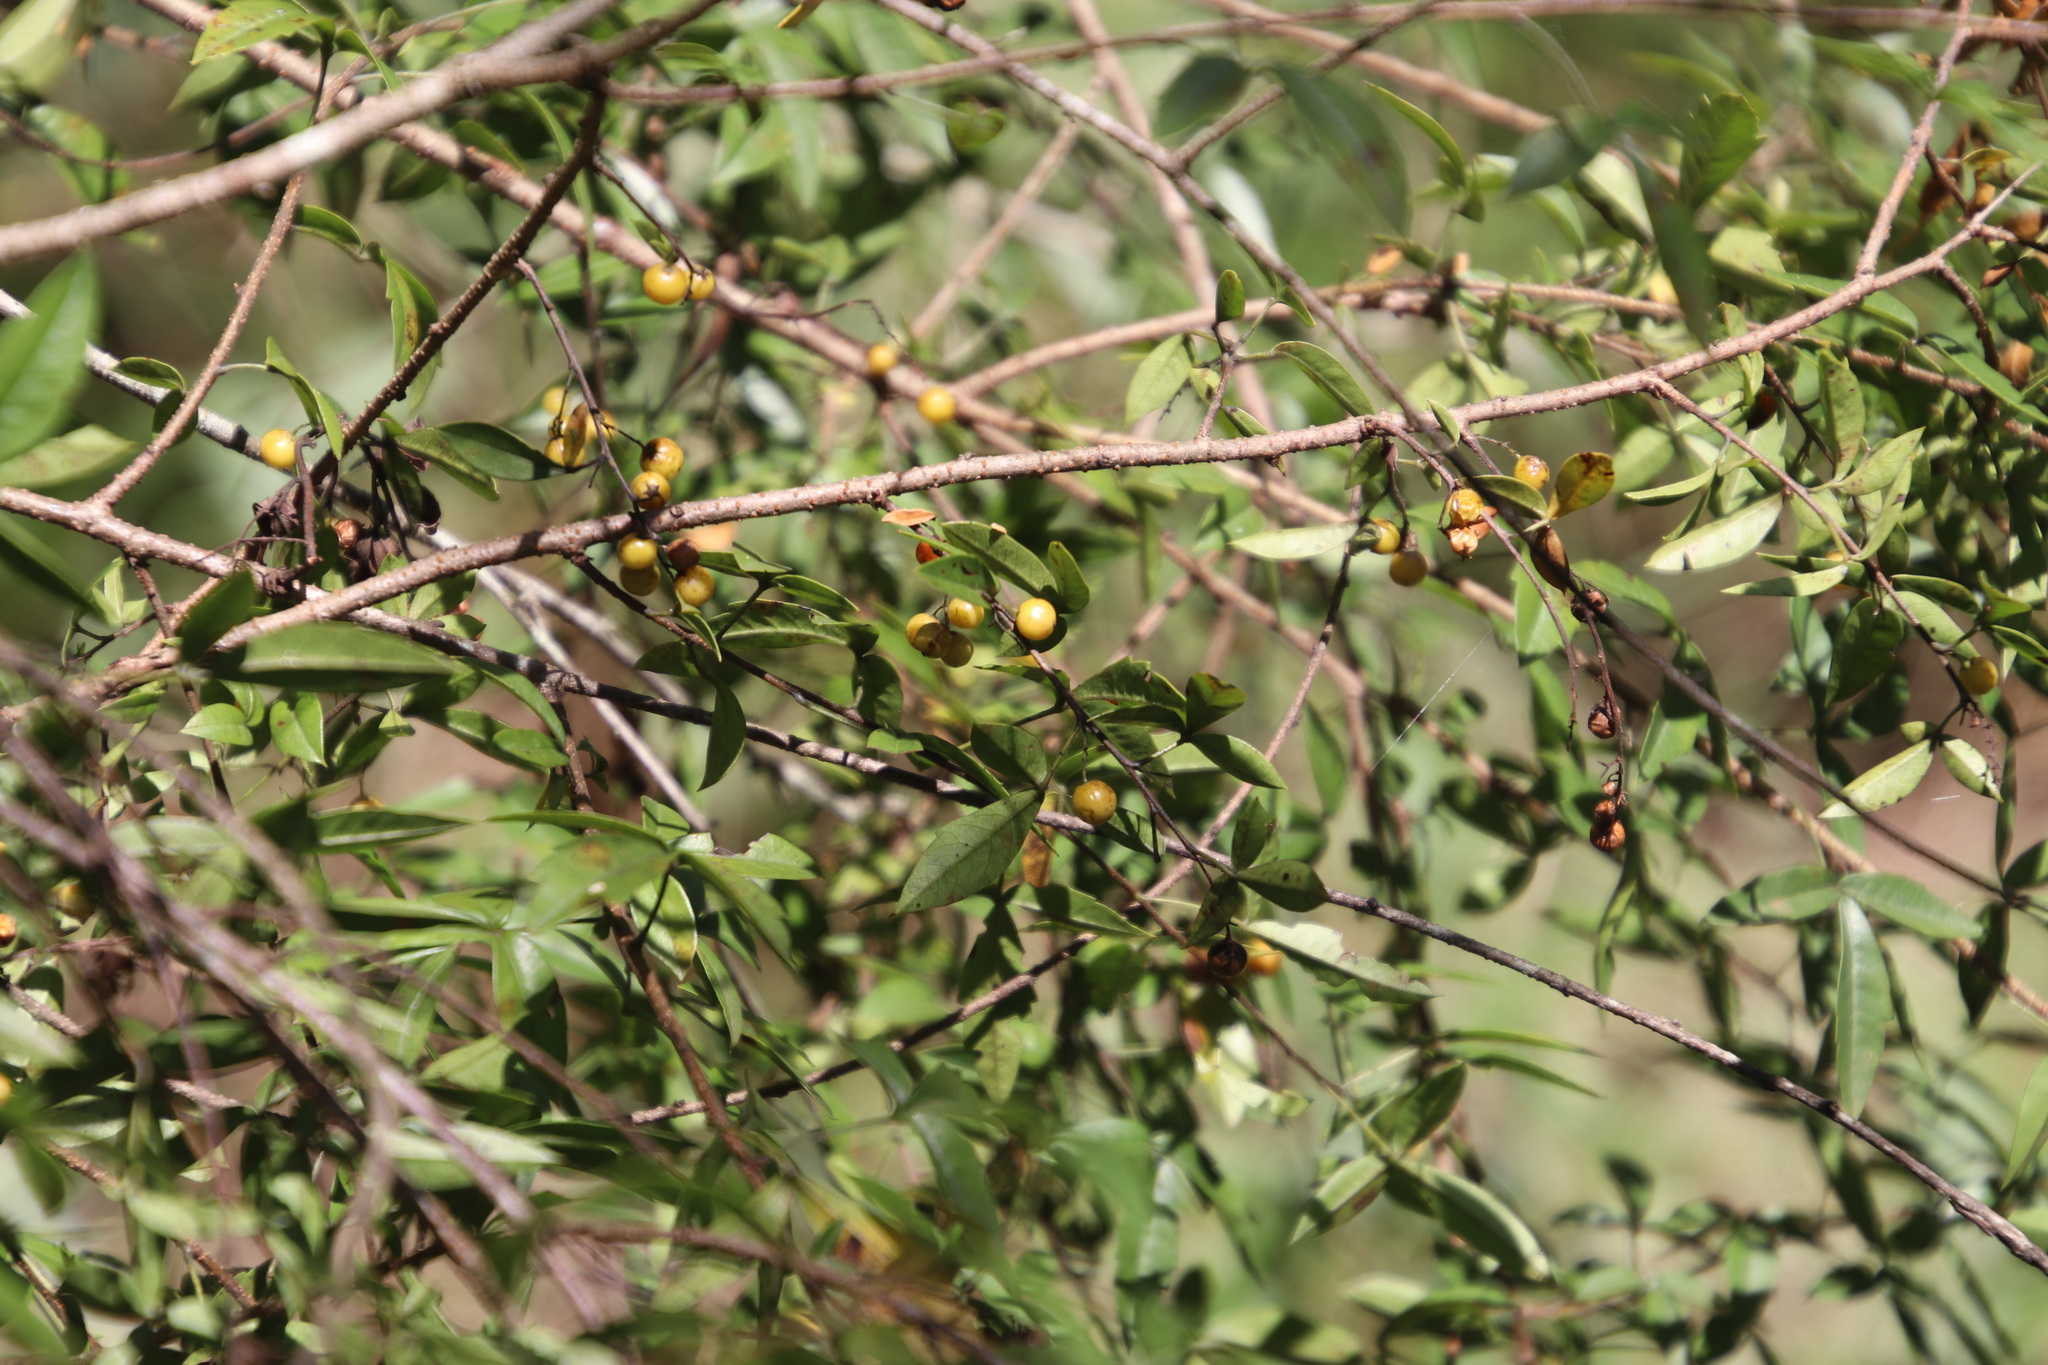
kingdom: Plantae
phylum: Tracheophyta
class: Magnoliopsida
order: Sapindales
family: Anacardiaceae
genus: Searsia
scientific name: Searsia transvaalensis
